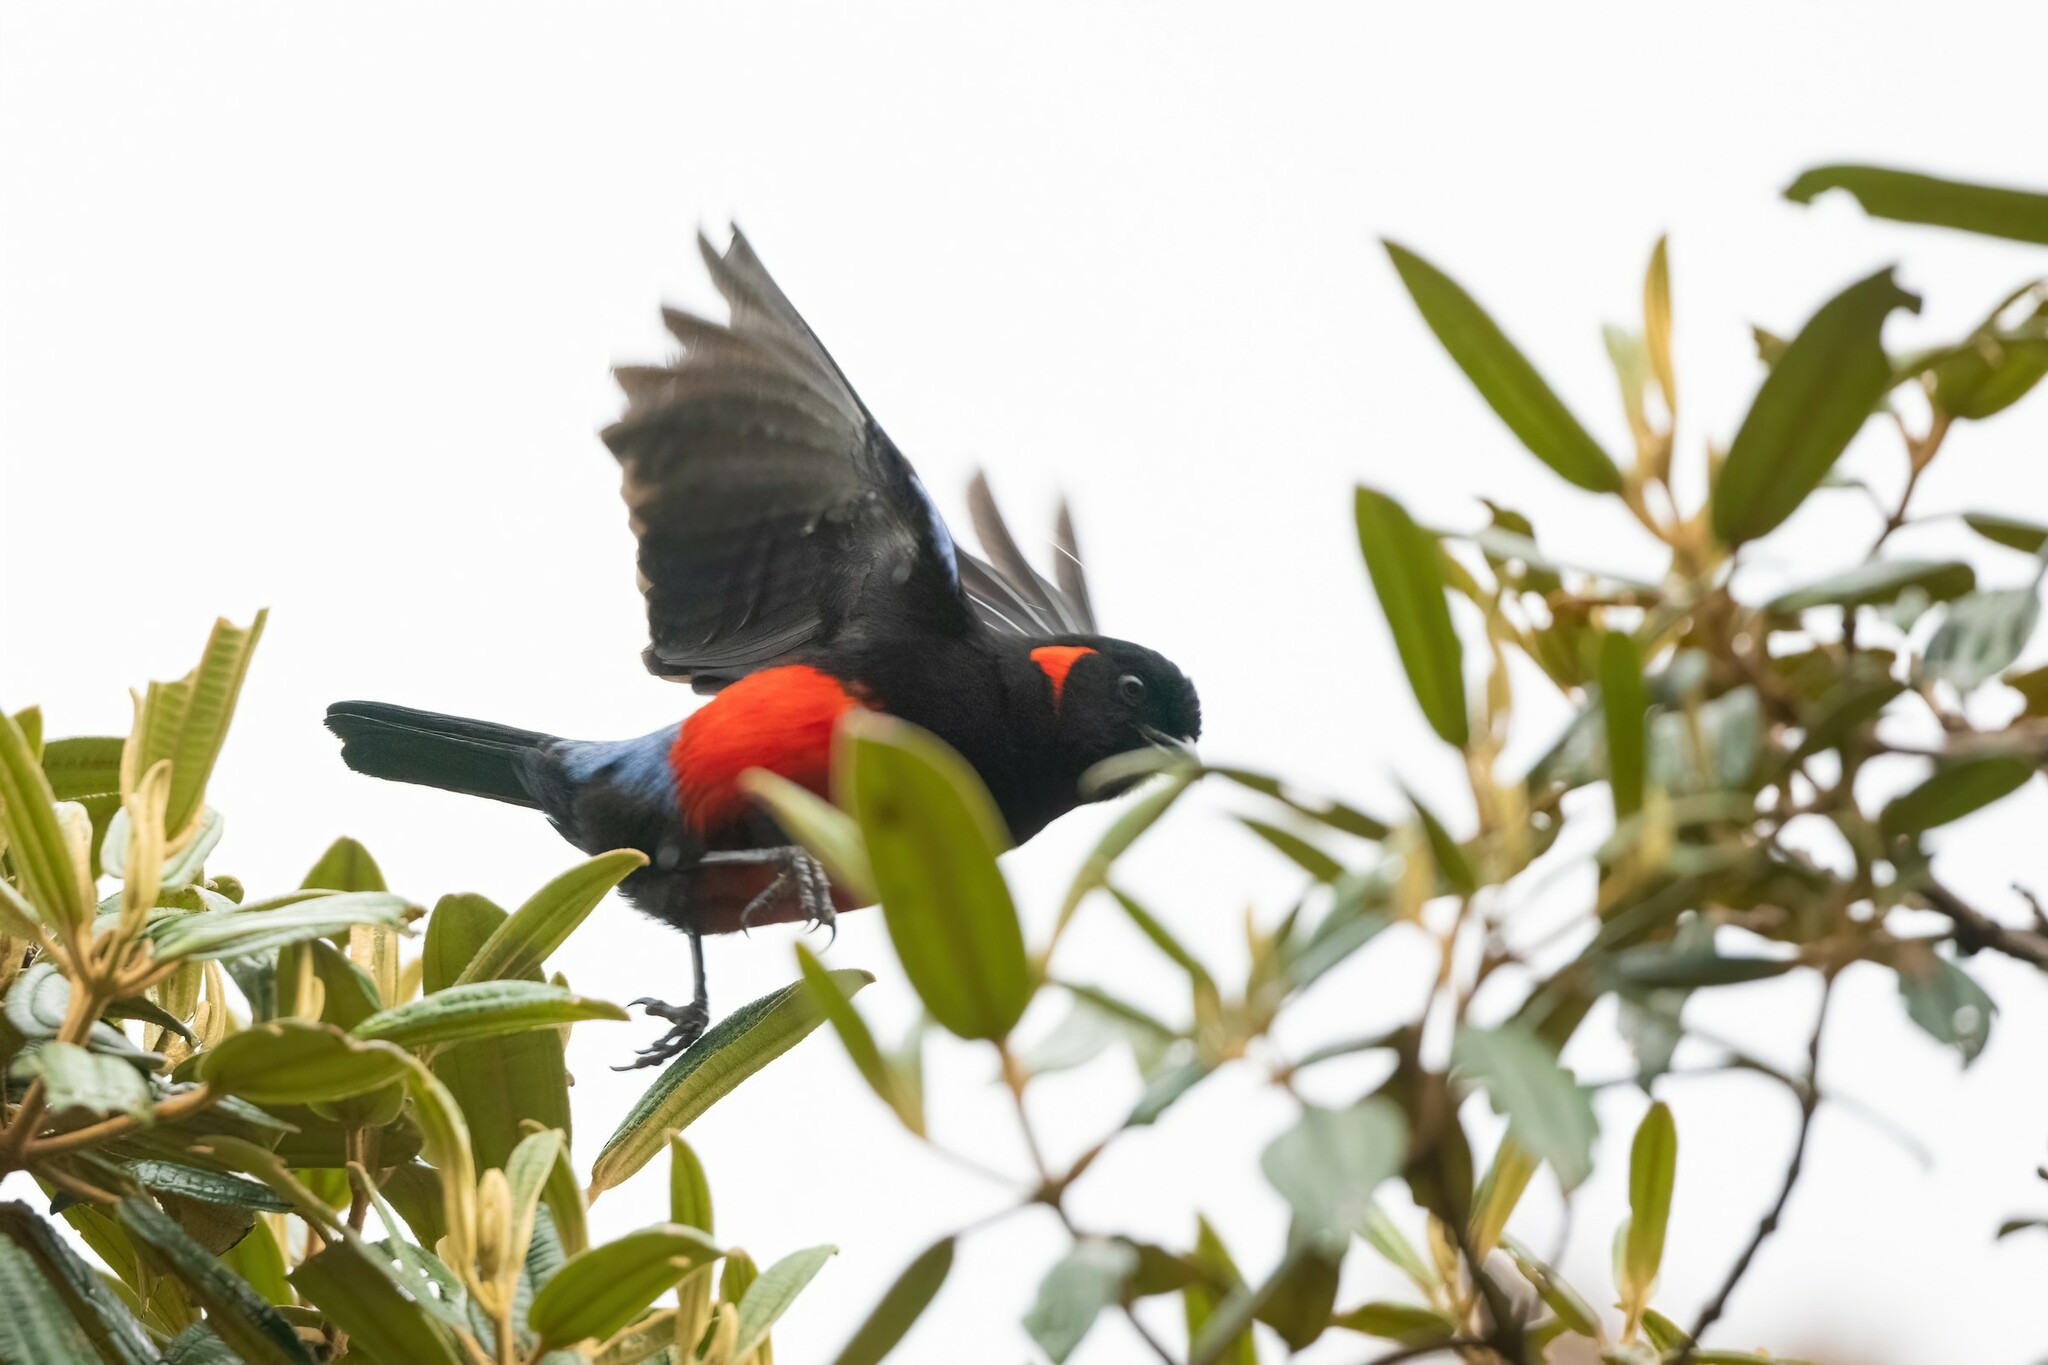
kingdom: Animalia
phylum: Chordata
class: Aves
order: Passeriformes
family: Thraupidae
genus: Anisognathus
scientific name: Anisognathus igniventris
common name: Scarlet-bellied mountain tanager
